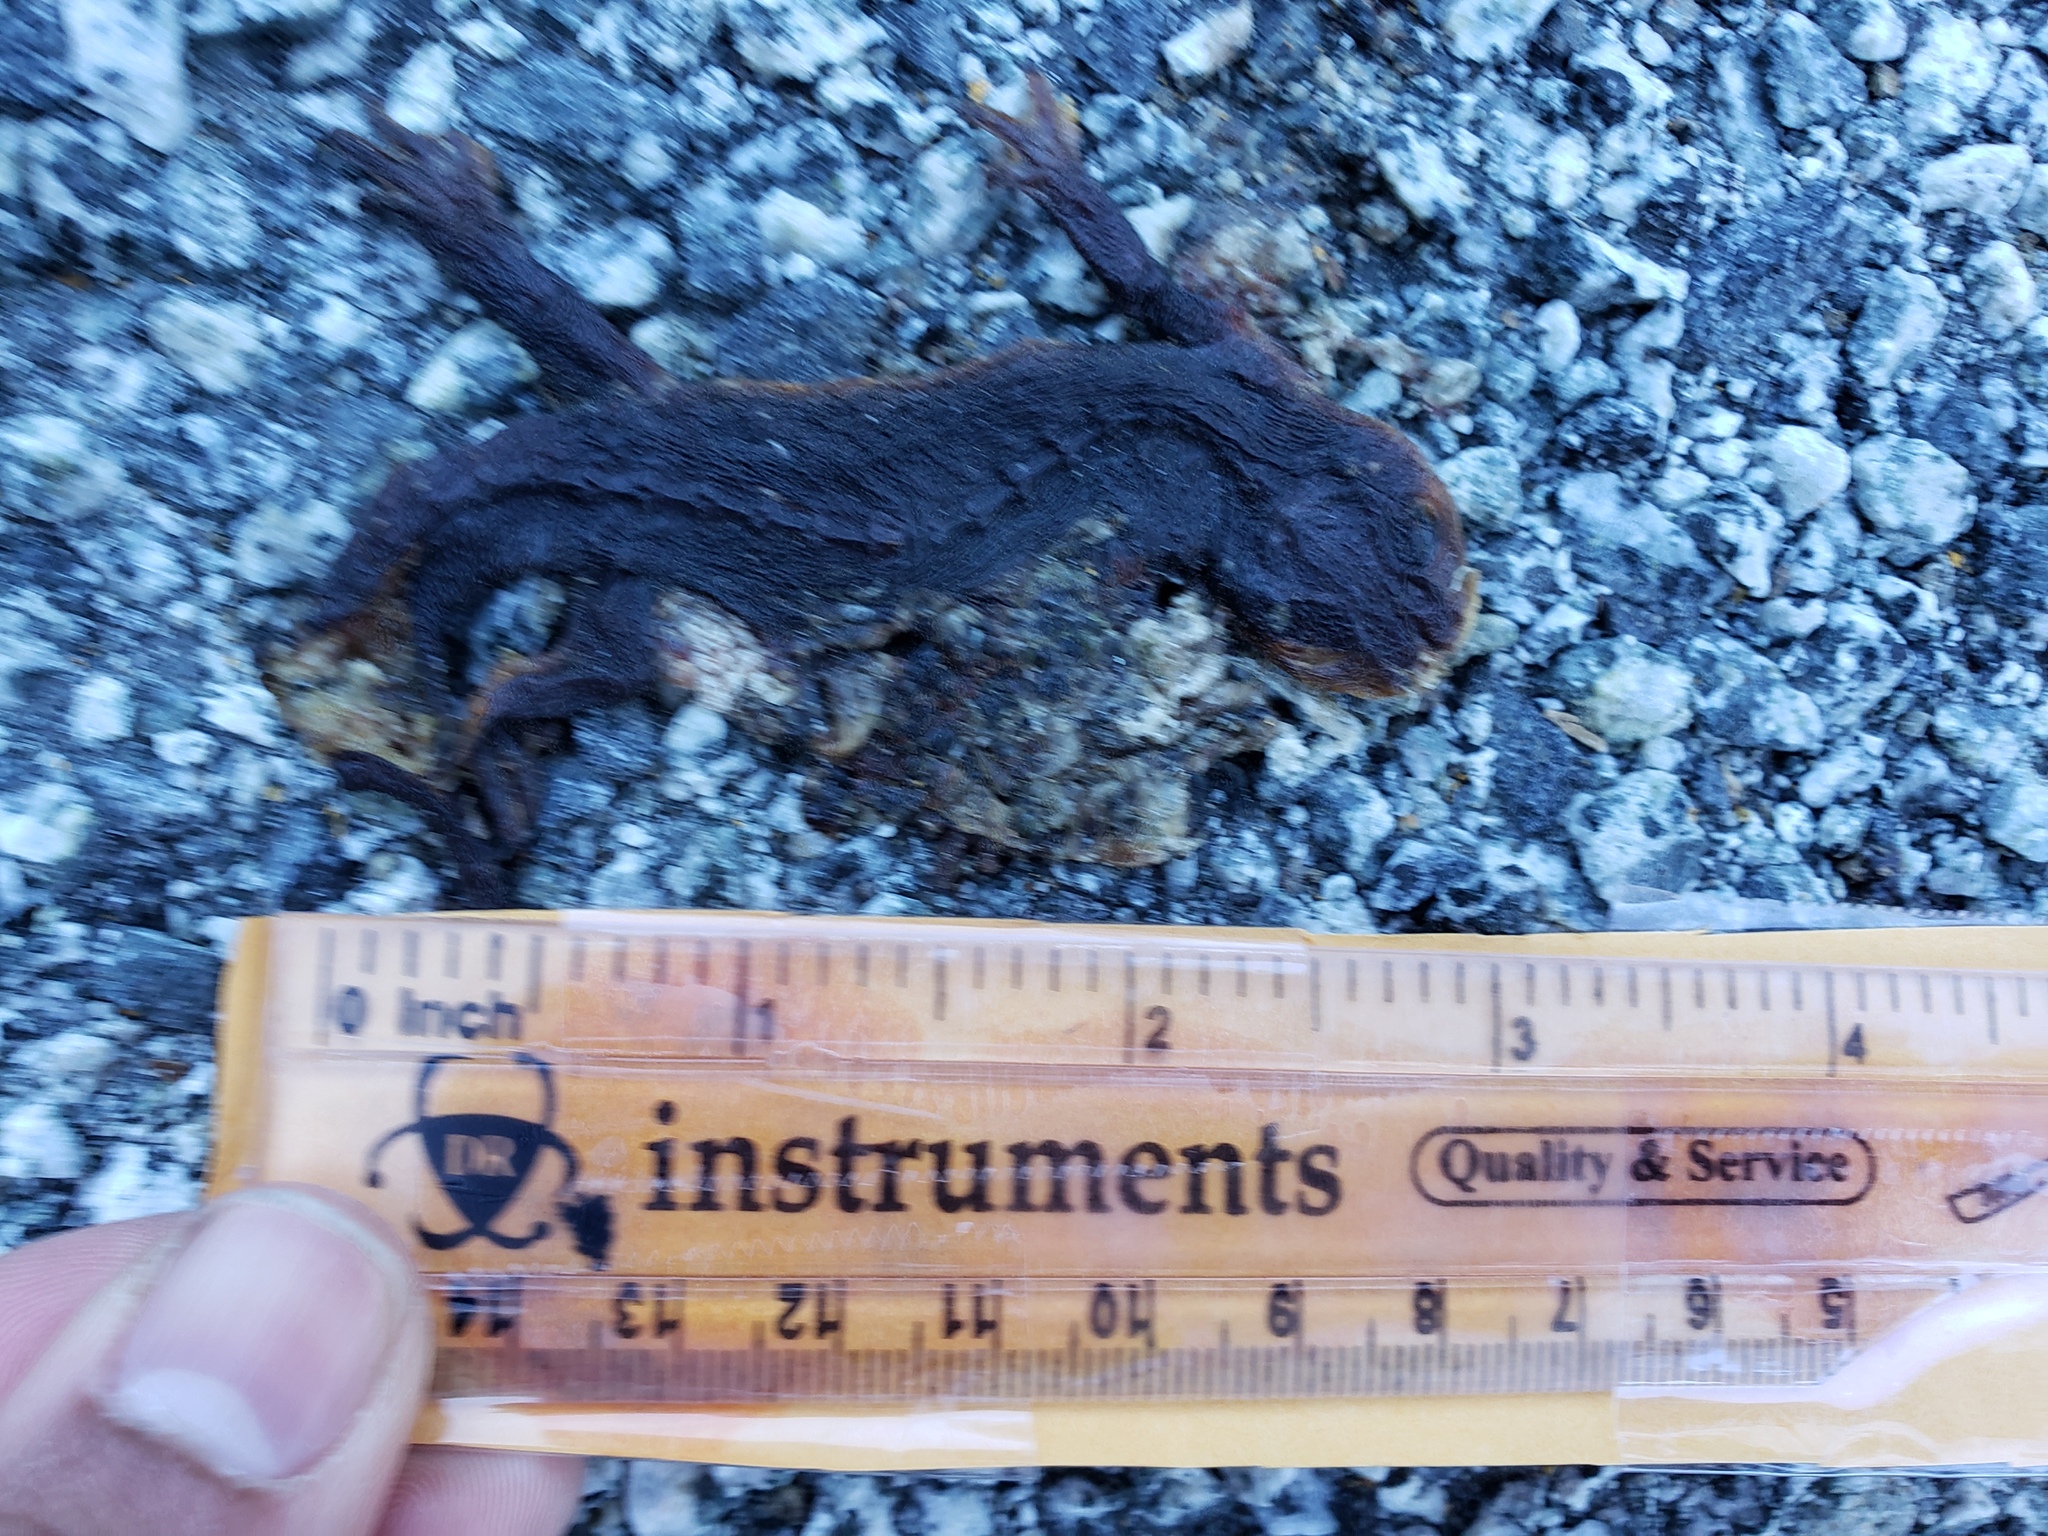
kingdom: Animalia
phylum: Chordata
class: Amphibia
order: Caudata
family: Salamandridae
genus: Taricha
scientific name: Taricha
